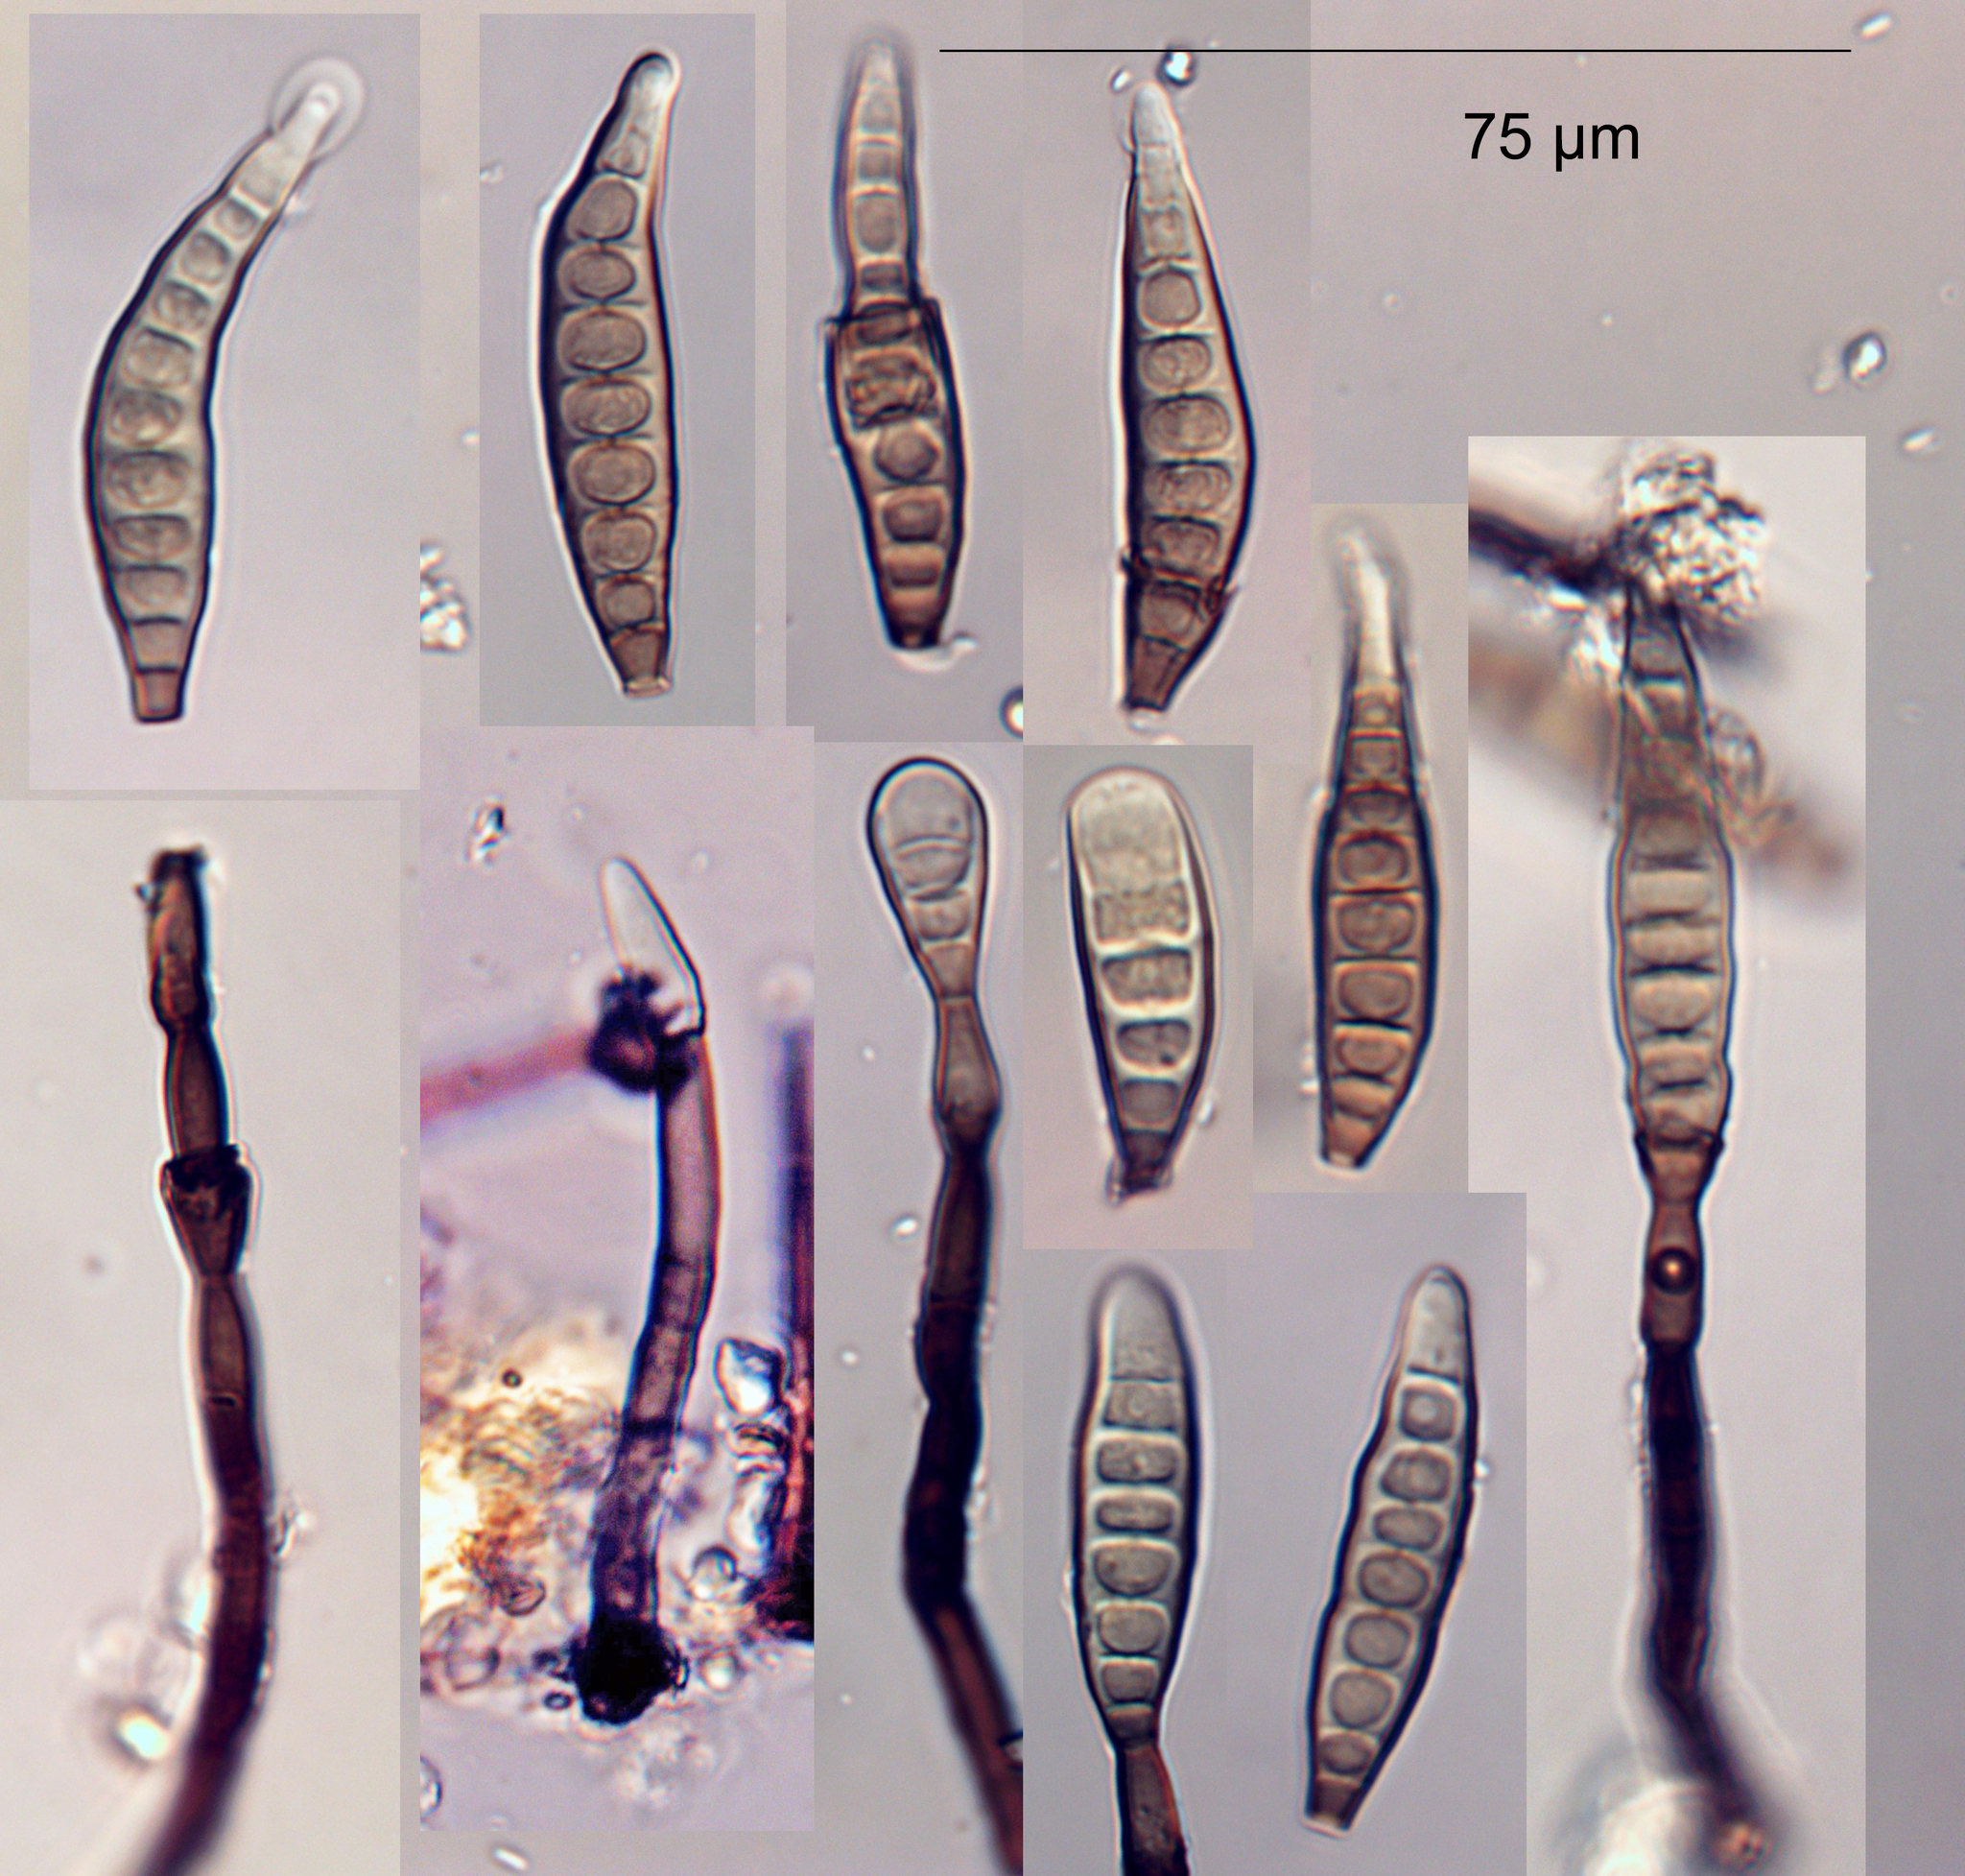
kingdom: Fungi
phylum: Ascomycota
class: Sordariomycetes
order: Chaetosphaeriales
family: Chaetosphaeriaceae
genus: Ellisembia
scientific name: Ellisembia leptospora
